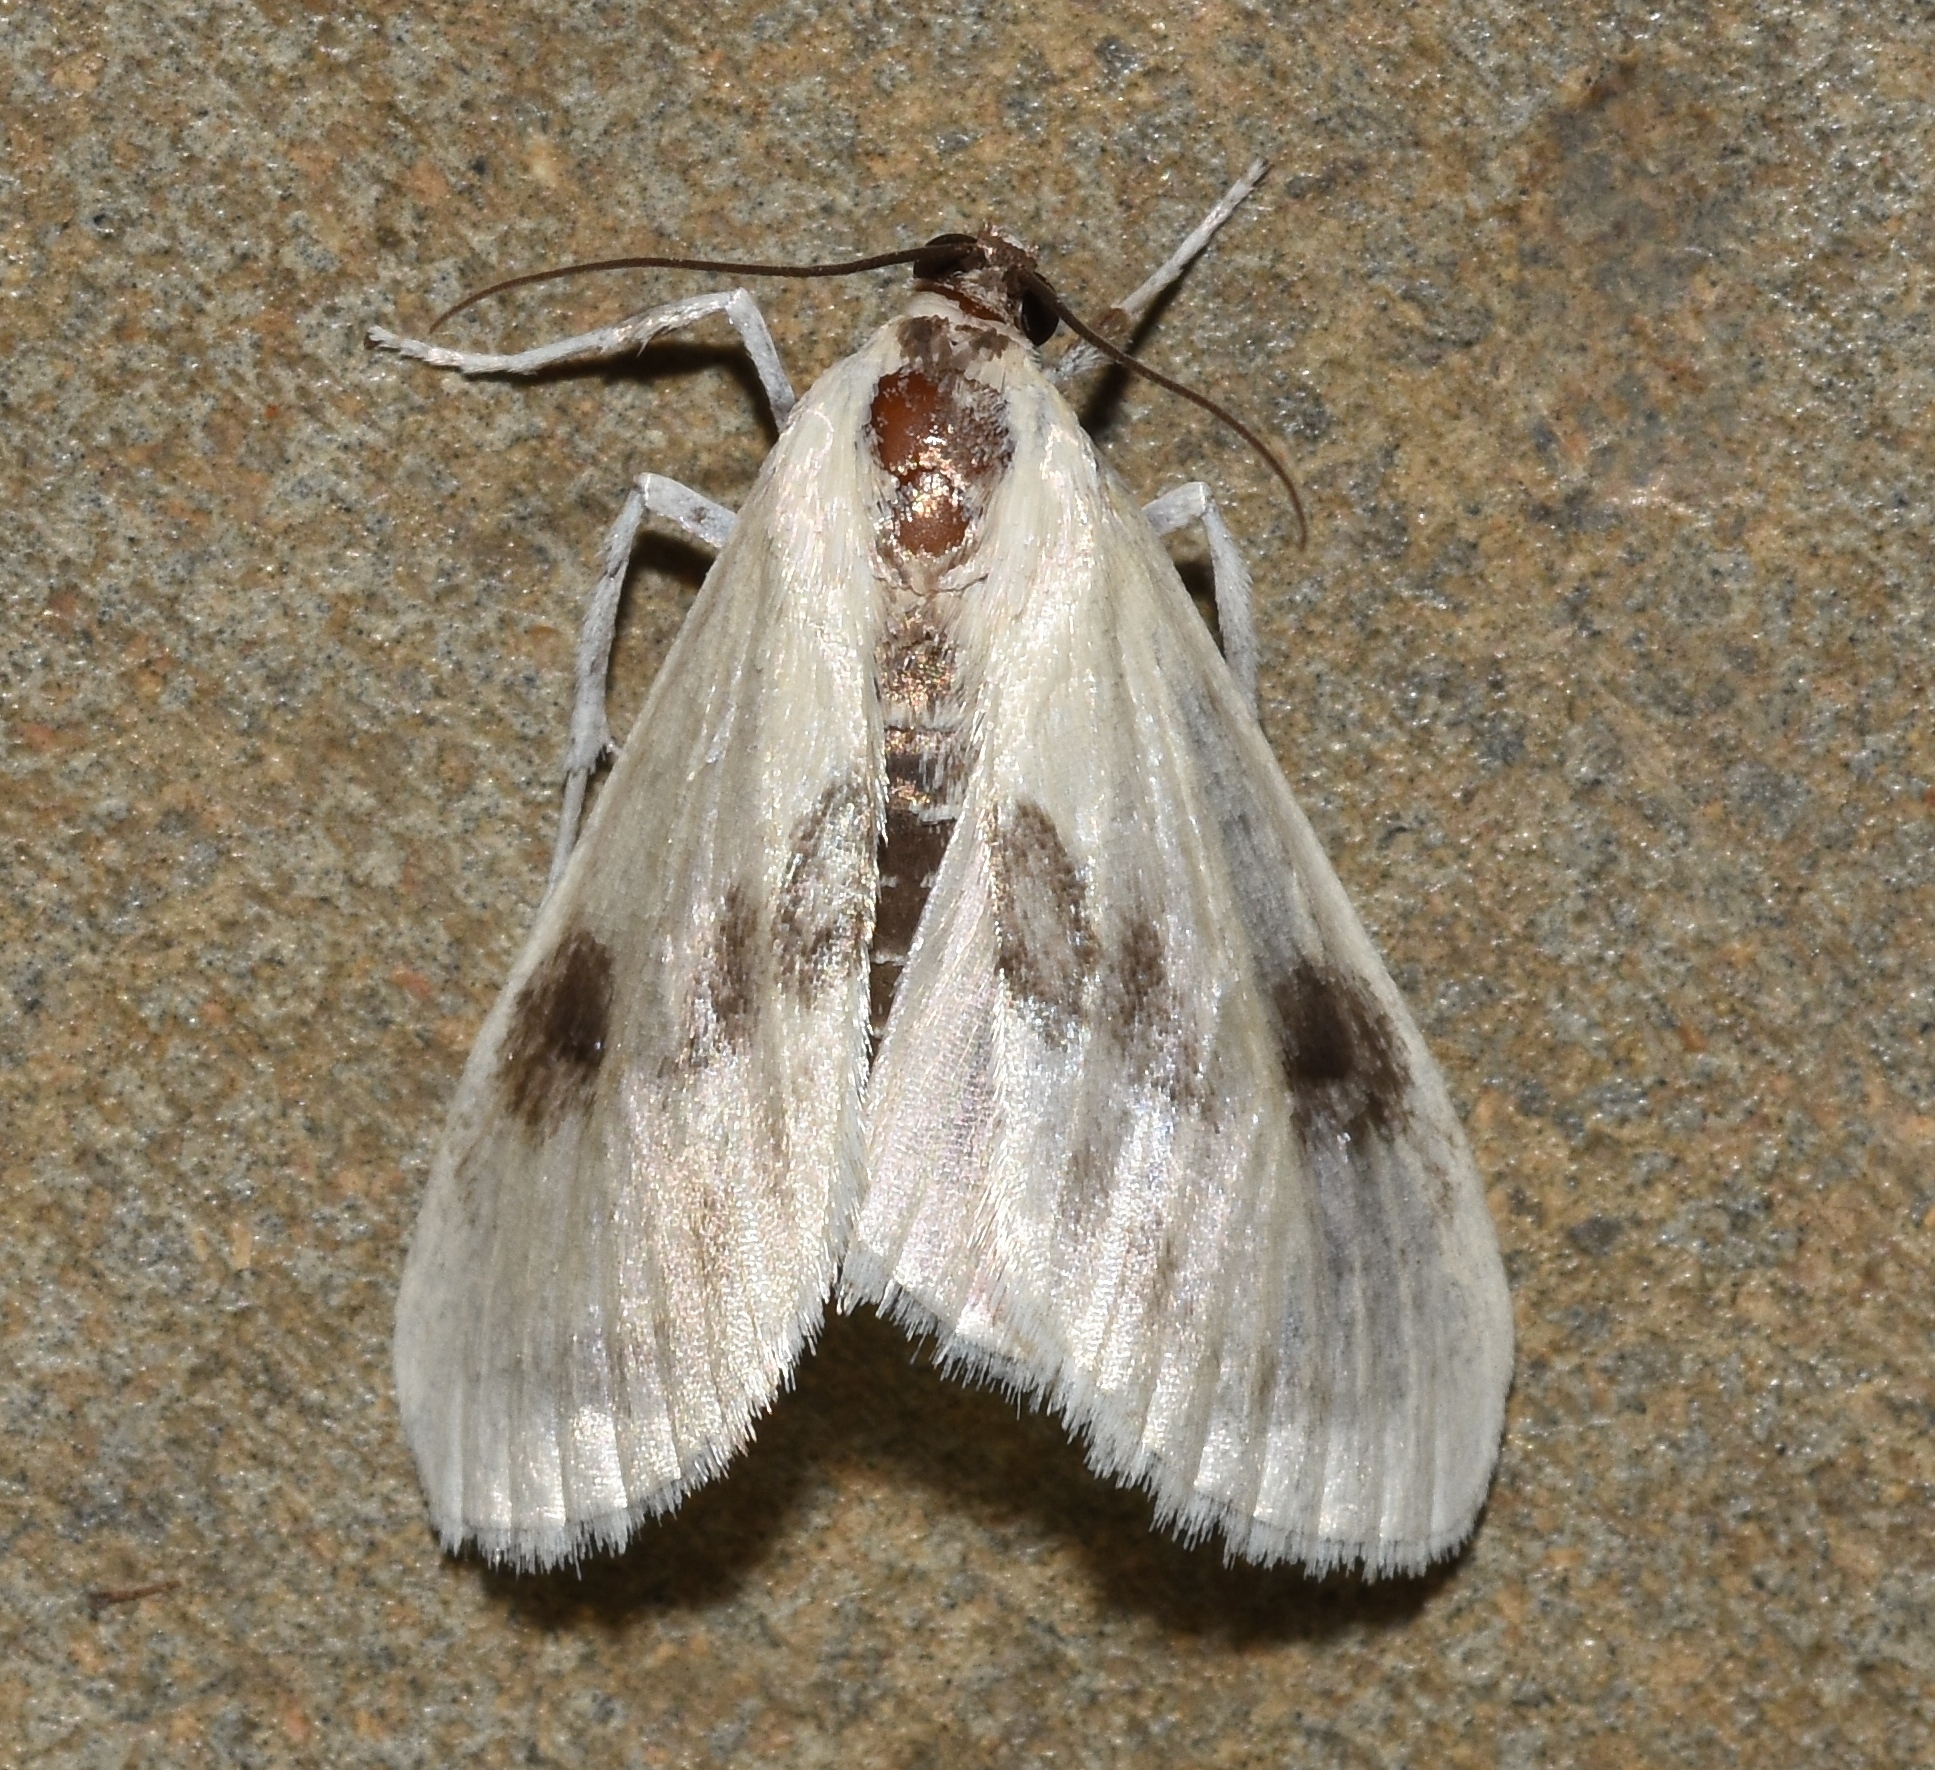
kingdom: Animalia
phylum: Arthropoda
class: Insecta
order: Lepidoptera
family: Crambidae
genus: Cliniodes
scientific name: Cliniodes
